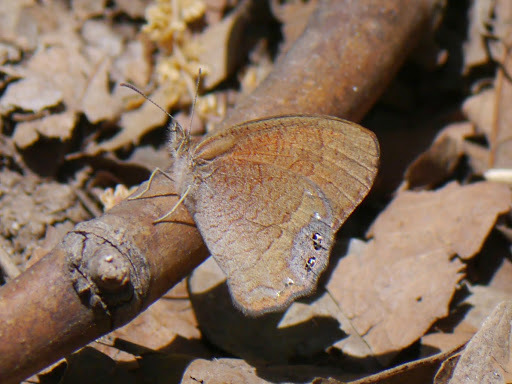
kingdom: Animalia
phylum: Arthropoda
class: Insecta
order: Lepidoptera
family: Nymphalidae
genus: Euptychia
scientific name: Euptychia pyracmon
